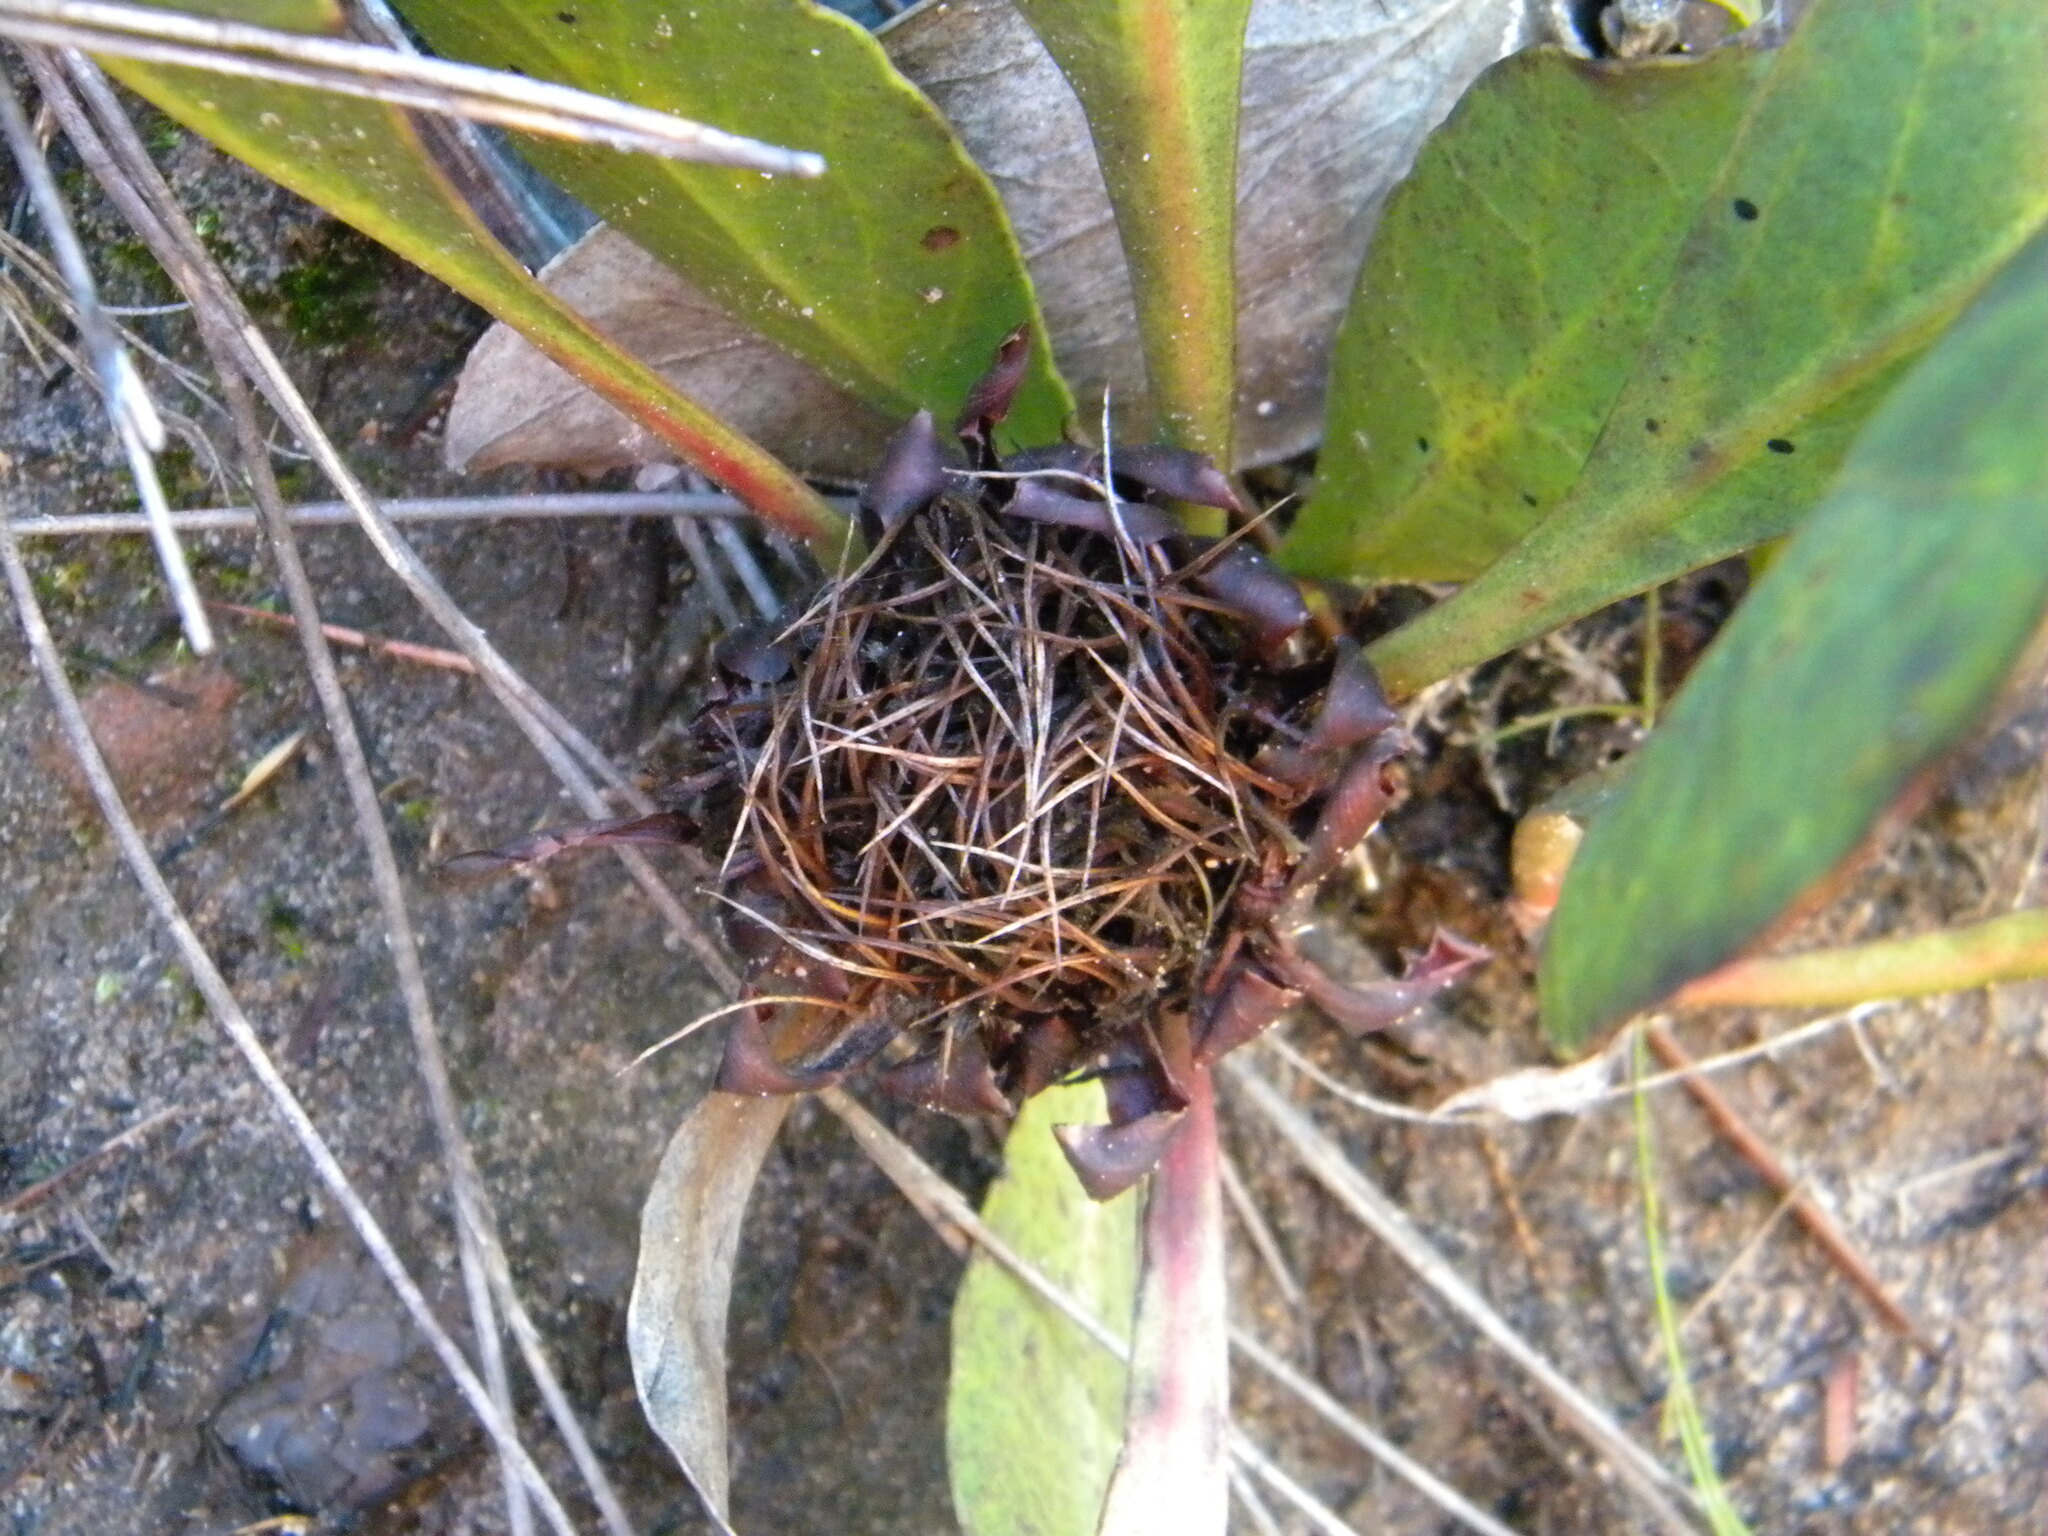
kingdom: Plantae
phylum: Tracheophyta
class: Magnoliopsida
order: Proteales
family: Proteaceae
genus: Protea
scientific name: Protea acaulos
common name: Common ground sugarbush
